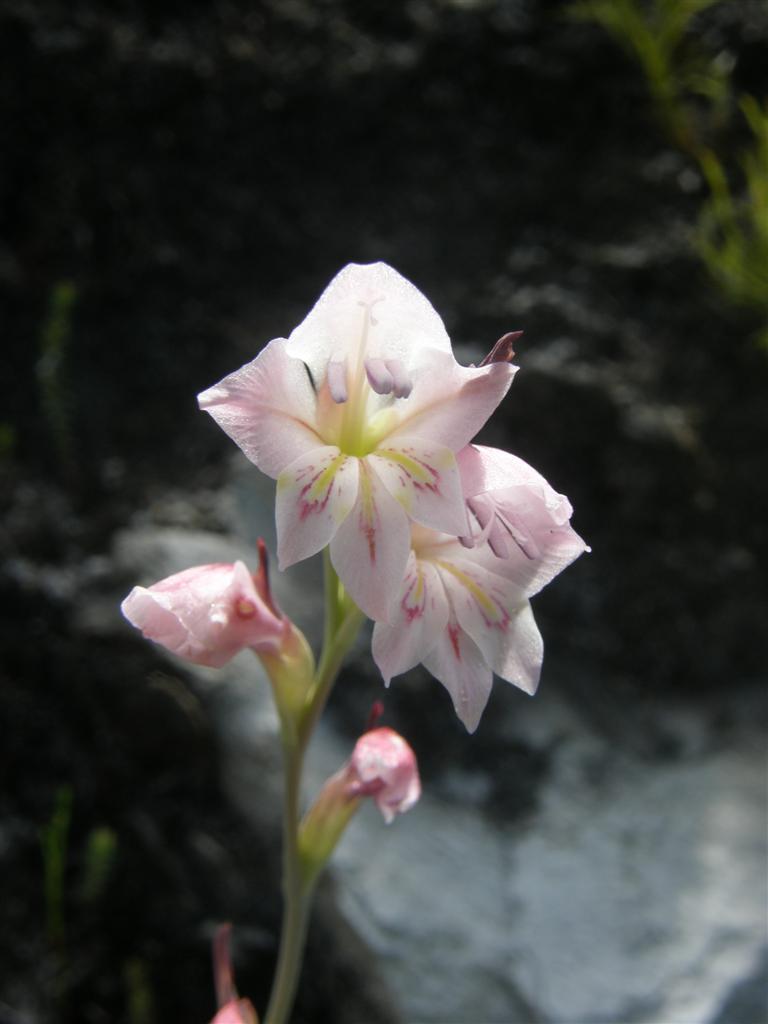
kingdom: Plantae
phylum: Tracheophyta
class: Liliopsida
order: Asparagales
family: Iridaceae
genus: Gladiolus
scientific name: Gladiolus martleyi
